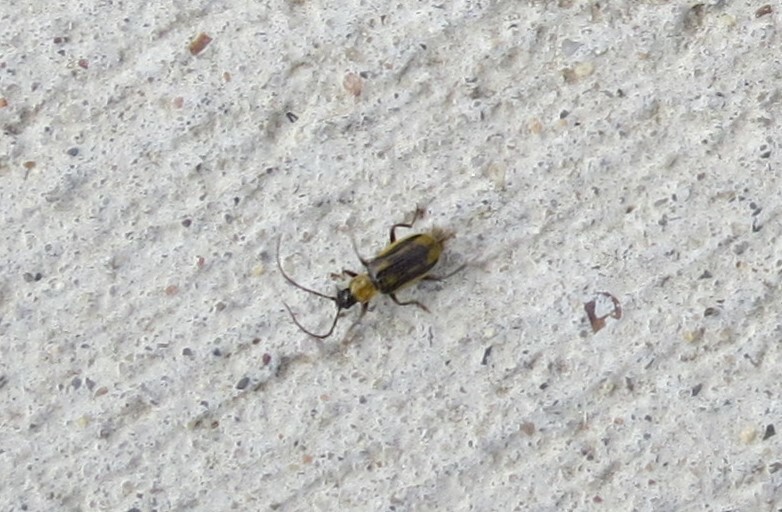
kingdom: Animalia
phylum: Arthropoda
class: Insecta
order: Coleoptera
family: Chrysomelidae
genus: Diabrotica
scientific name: Diabrotica virgifera
